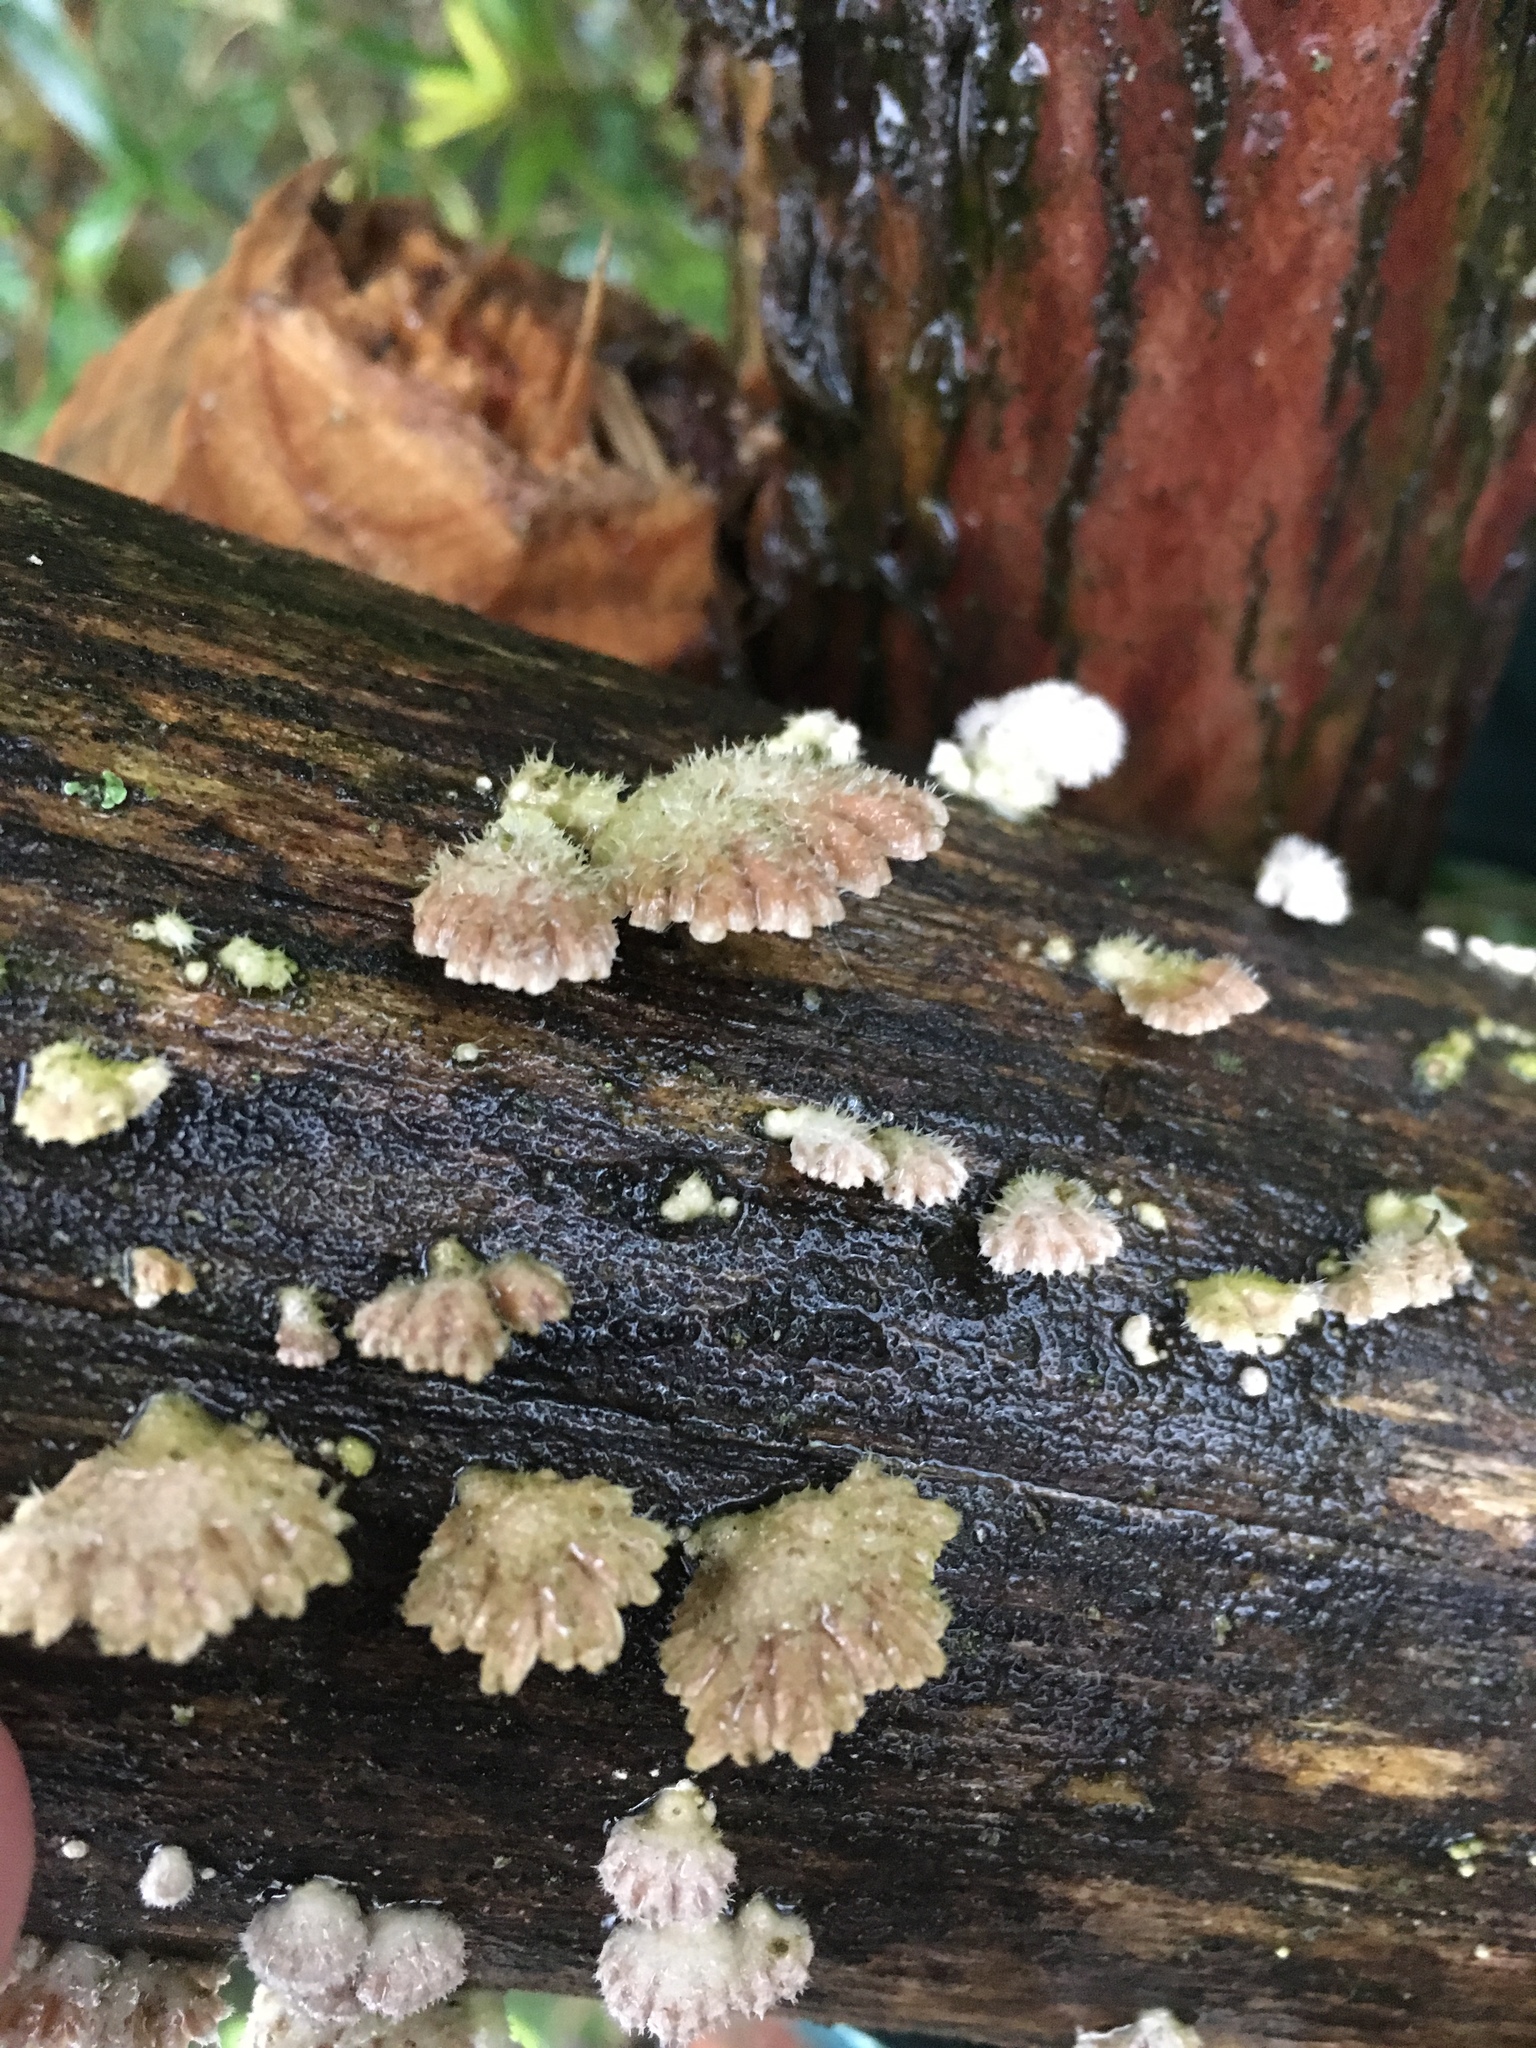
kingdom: Fungi
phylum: Basidiomycota
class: Agaricomycetes
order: Agaricales
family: Schizophyllaceae
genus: Schizophyllum
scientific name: Schizophyllum commune
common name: Common porecrust
